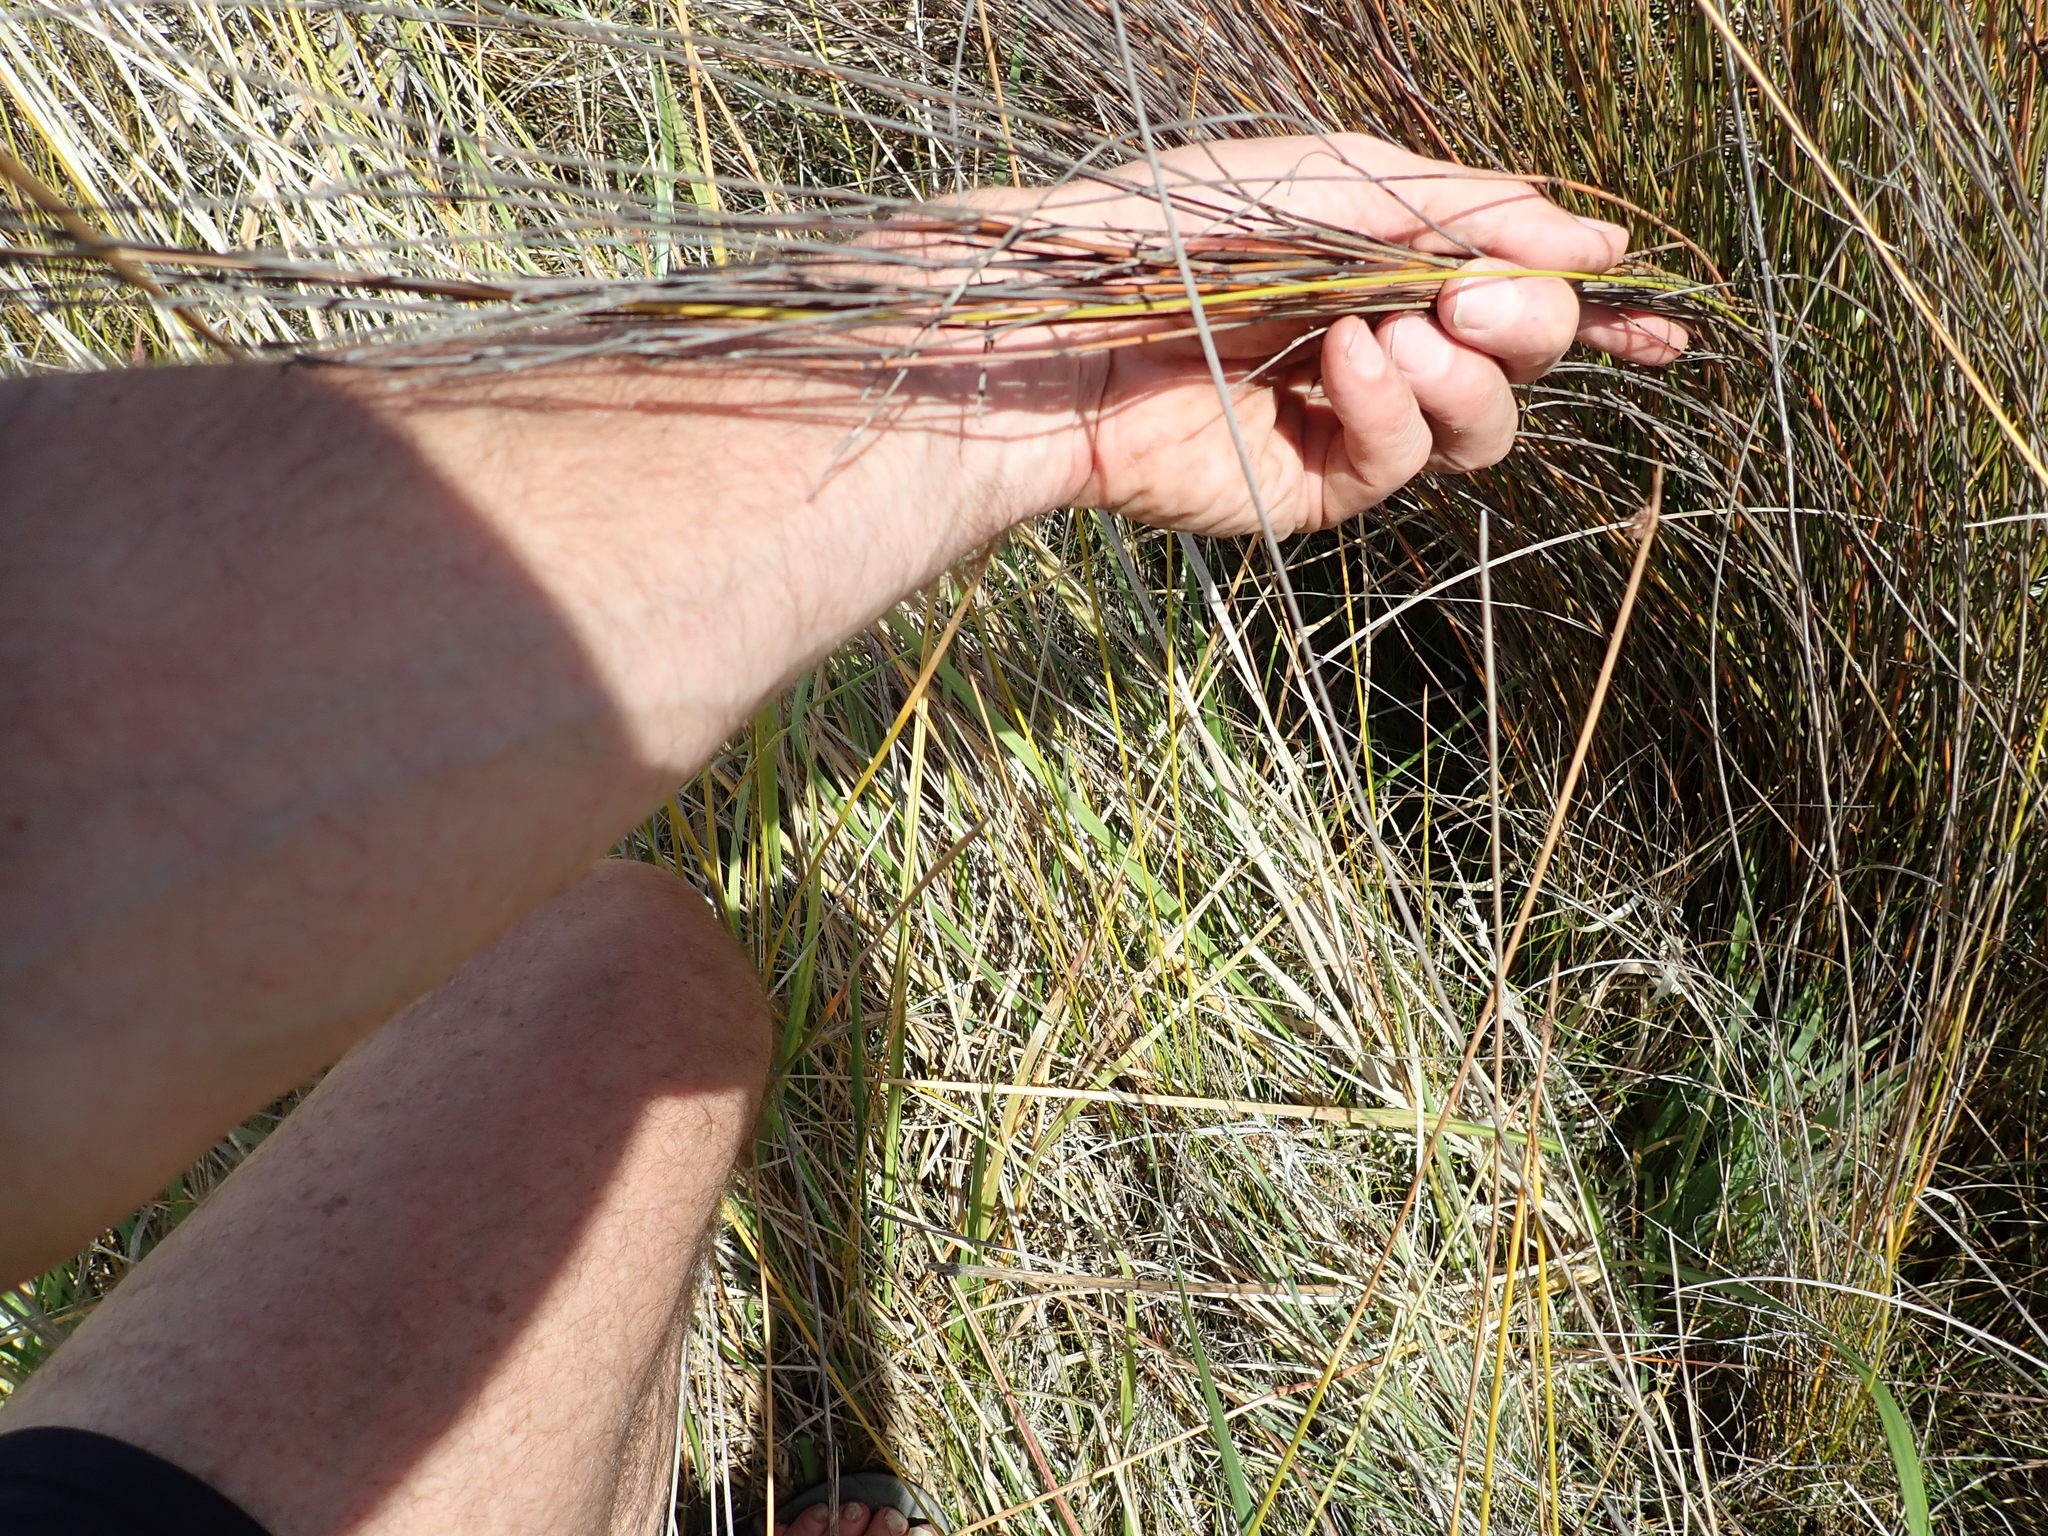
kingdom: Plantae
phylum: Tracheophyta
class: Liliopsida
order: Poales
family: Restionaceae
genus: Apodasmia
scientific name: Apodasmia similis
